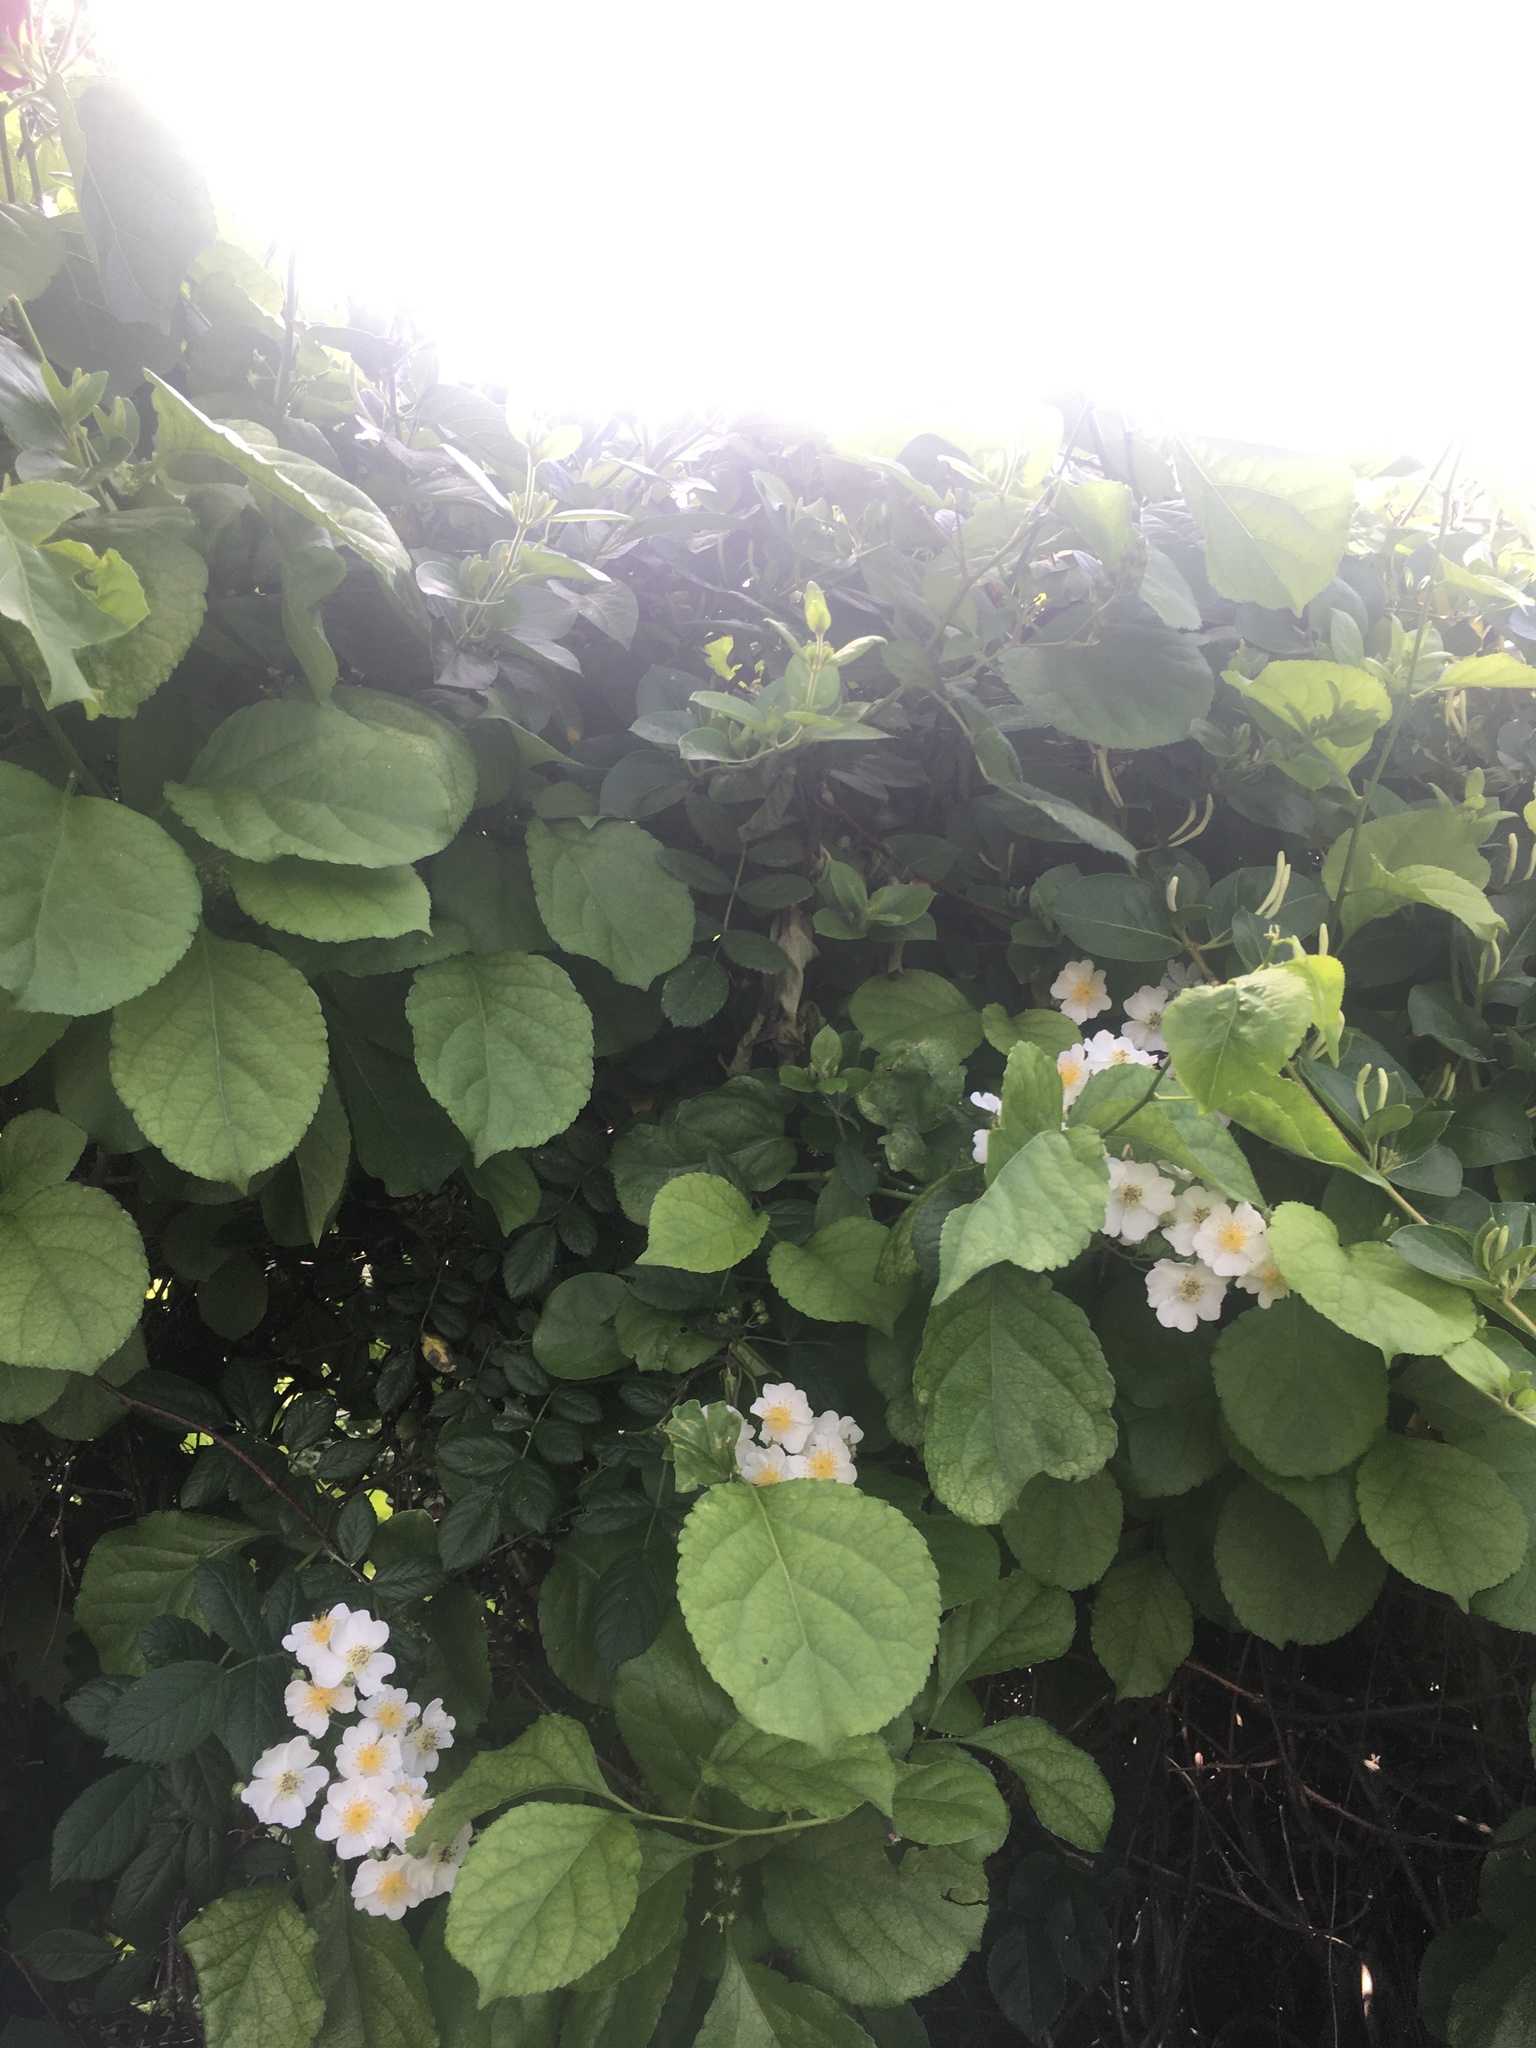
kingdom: Plantae
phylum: Tracheophyta
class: Magnoliopsida
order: Rosales
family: Rosaceae
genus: Rosa
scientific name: Rosa multiflora
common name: Multiflora rose
